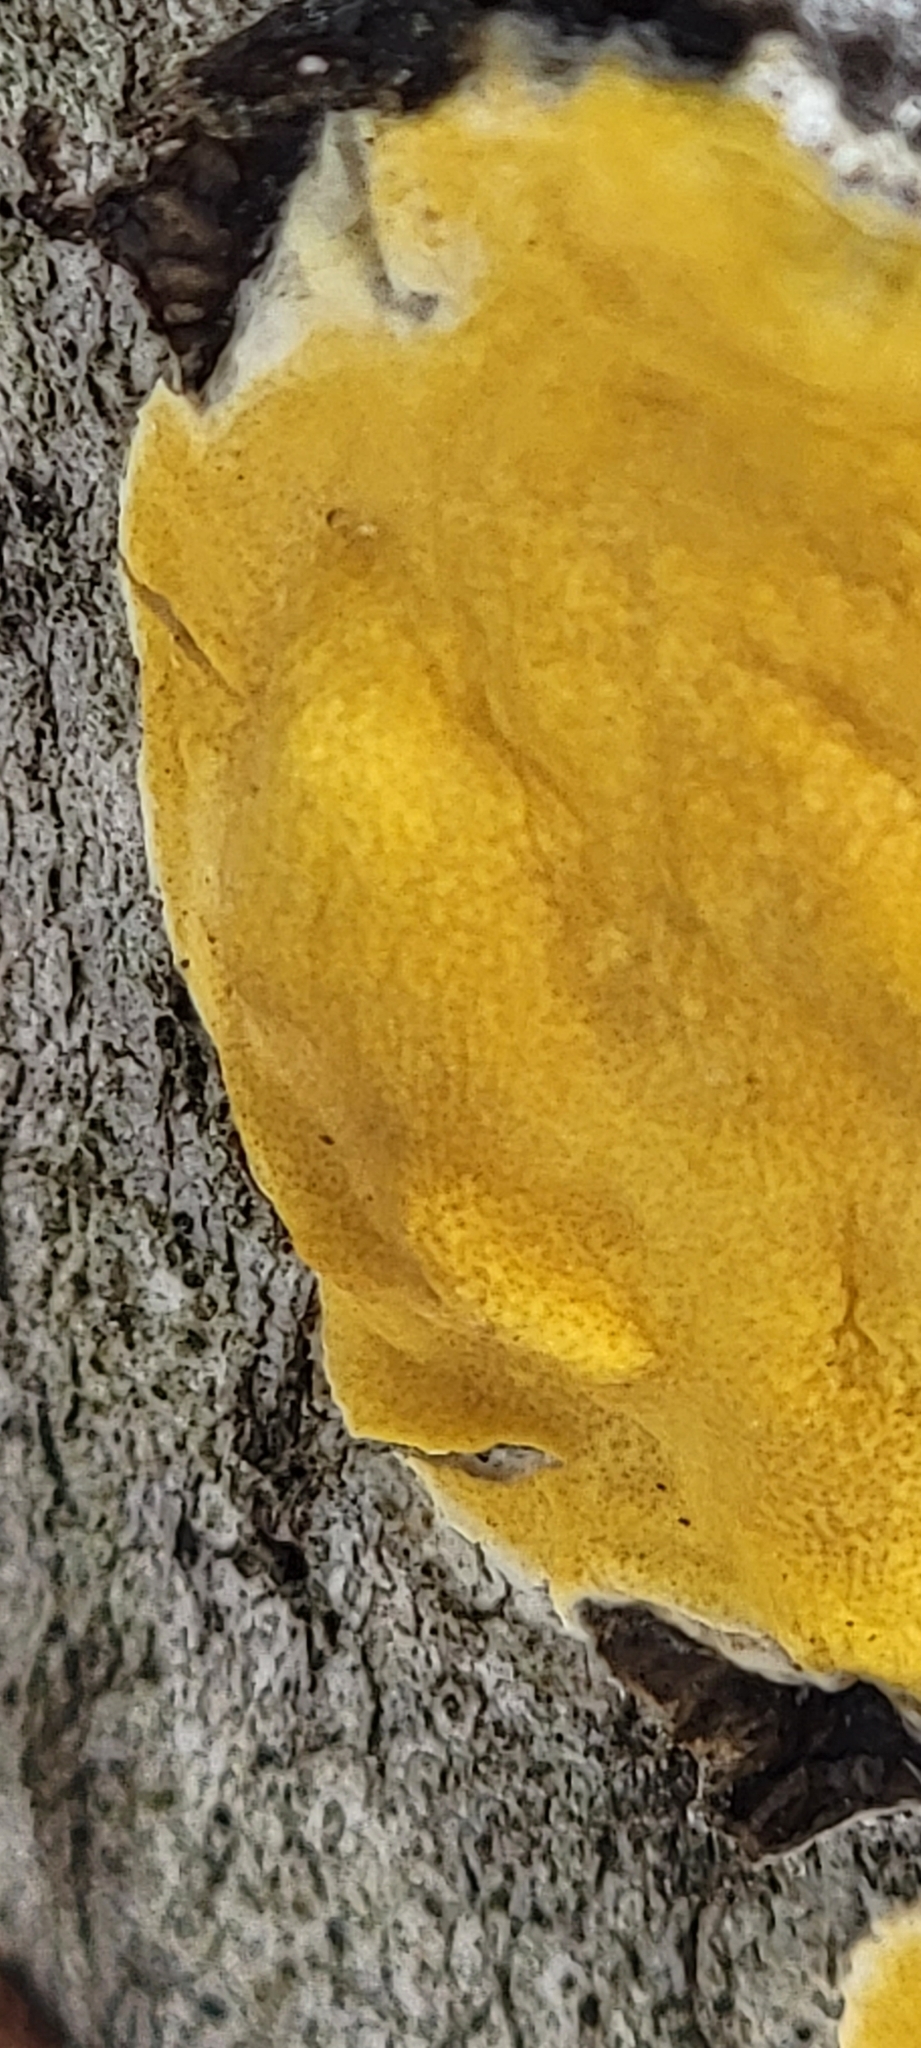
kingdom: Fungi
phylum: Ascomycota
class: Sordariomycetes
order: Hypocreales
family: Hypocreaceae
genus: Trichoderma
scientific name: Trichoderma sulphureum
